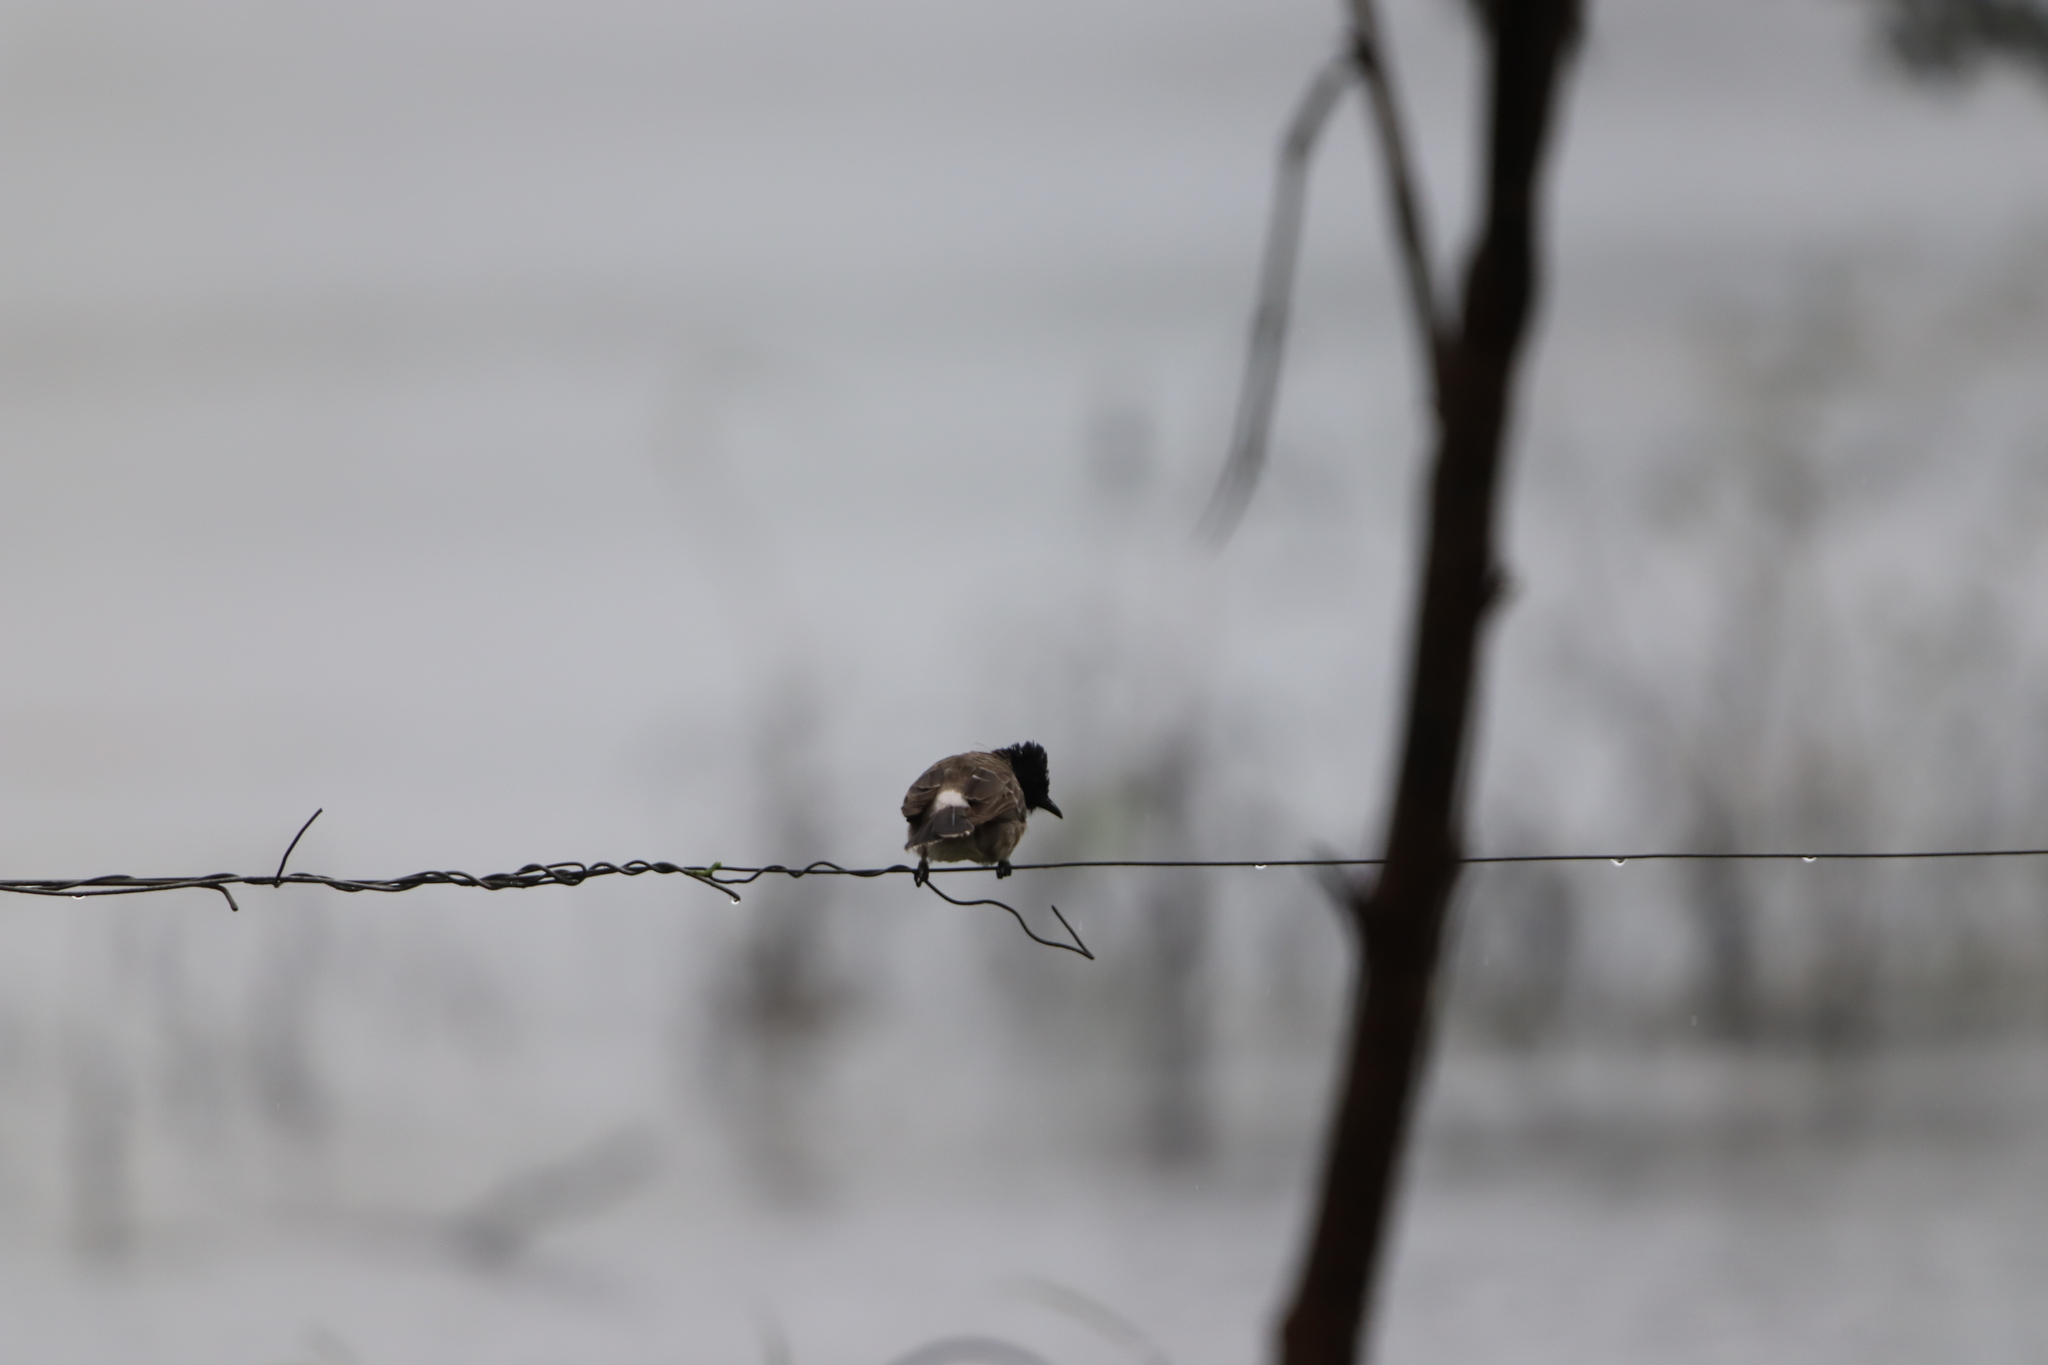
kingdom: Animalia
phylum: Chordata
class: Aves
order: Passeriformes
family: Pycnonotidae
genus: Pycnonotus
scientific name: Pycnonotus cafer
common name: Red-vented bulbul
